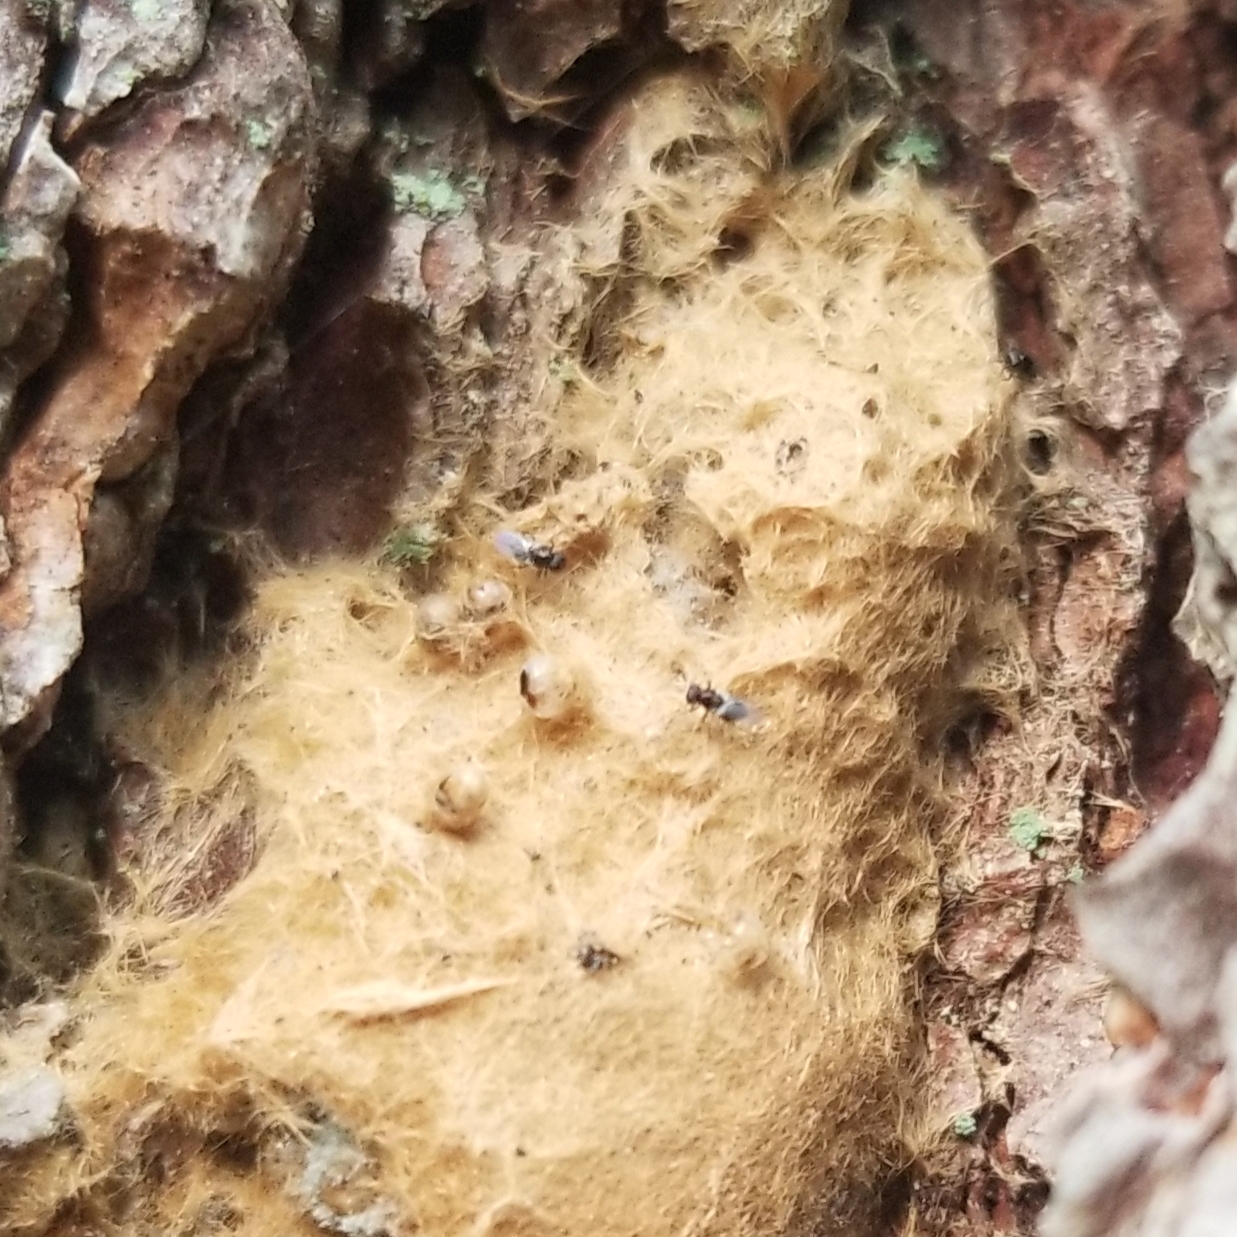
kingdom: Animalia
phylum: Arthropoda
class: Insecta
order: Hymenoptera
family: Encyrtidae
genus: Ooencyrtus
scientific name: Ooencyrtus kuvanae
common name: Wasp
